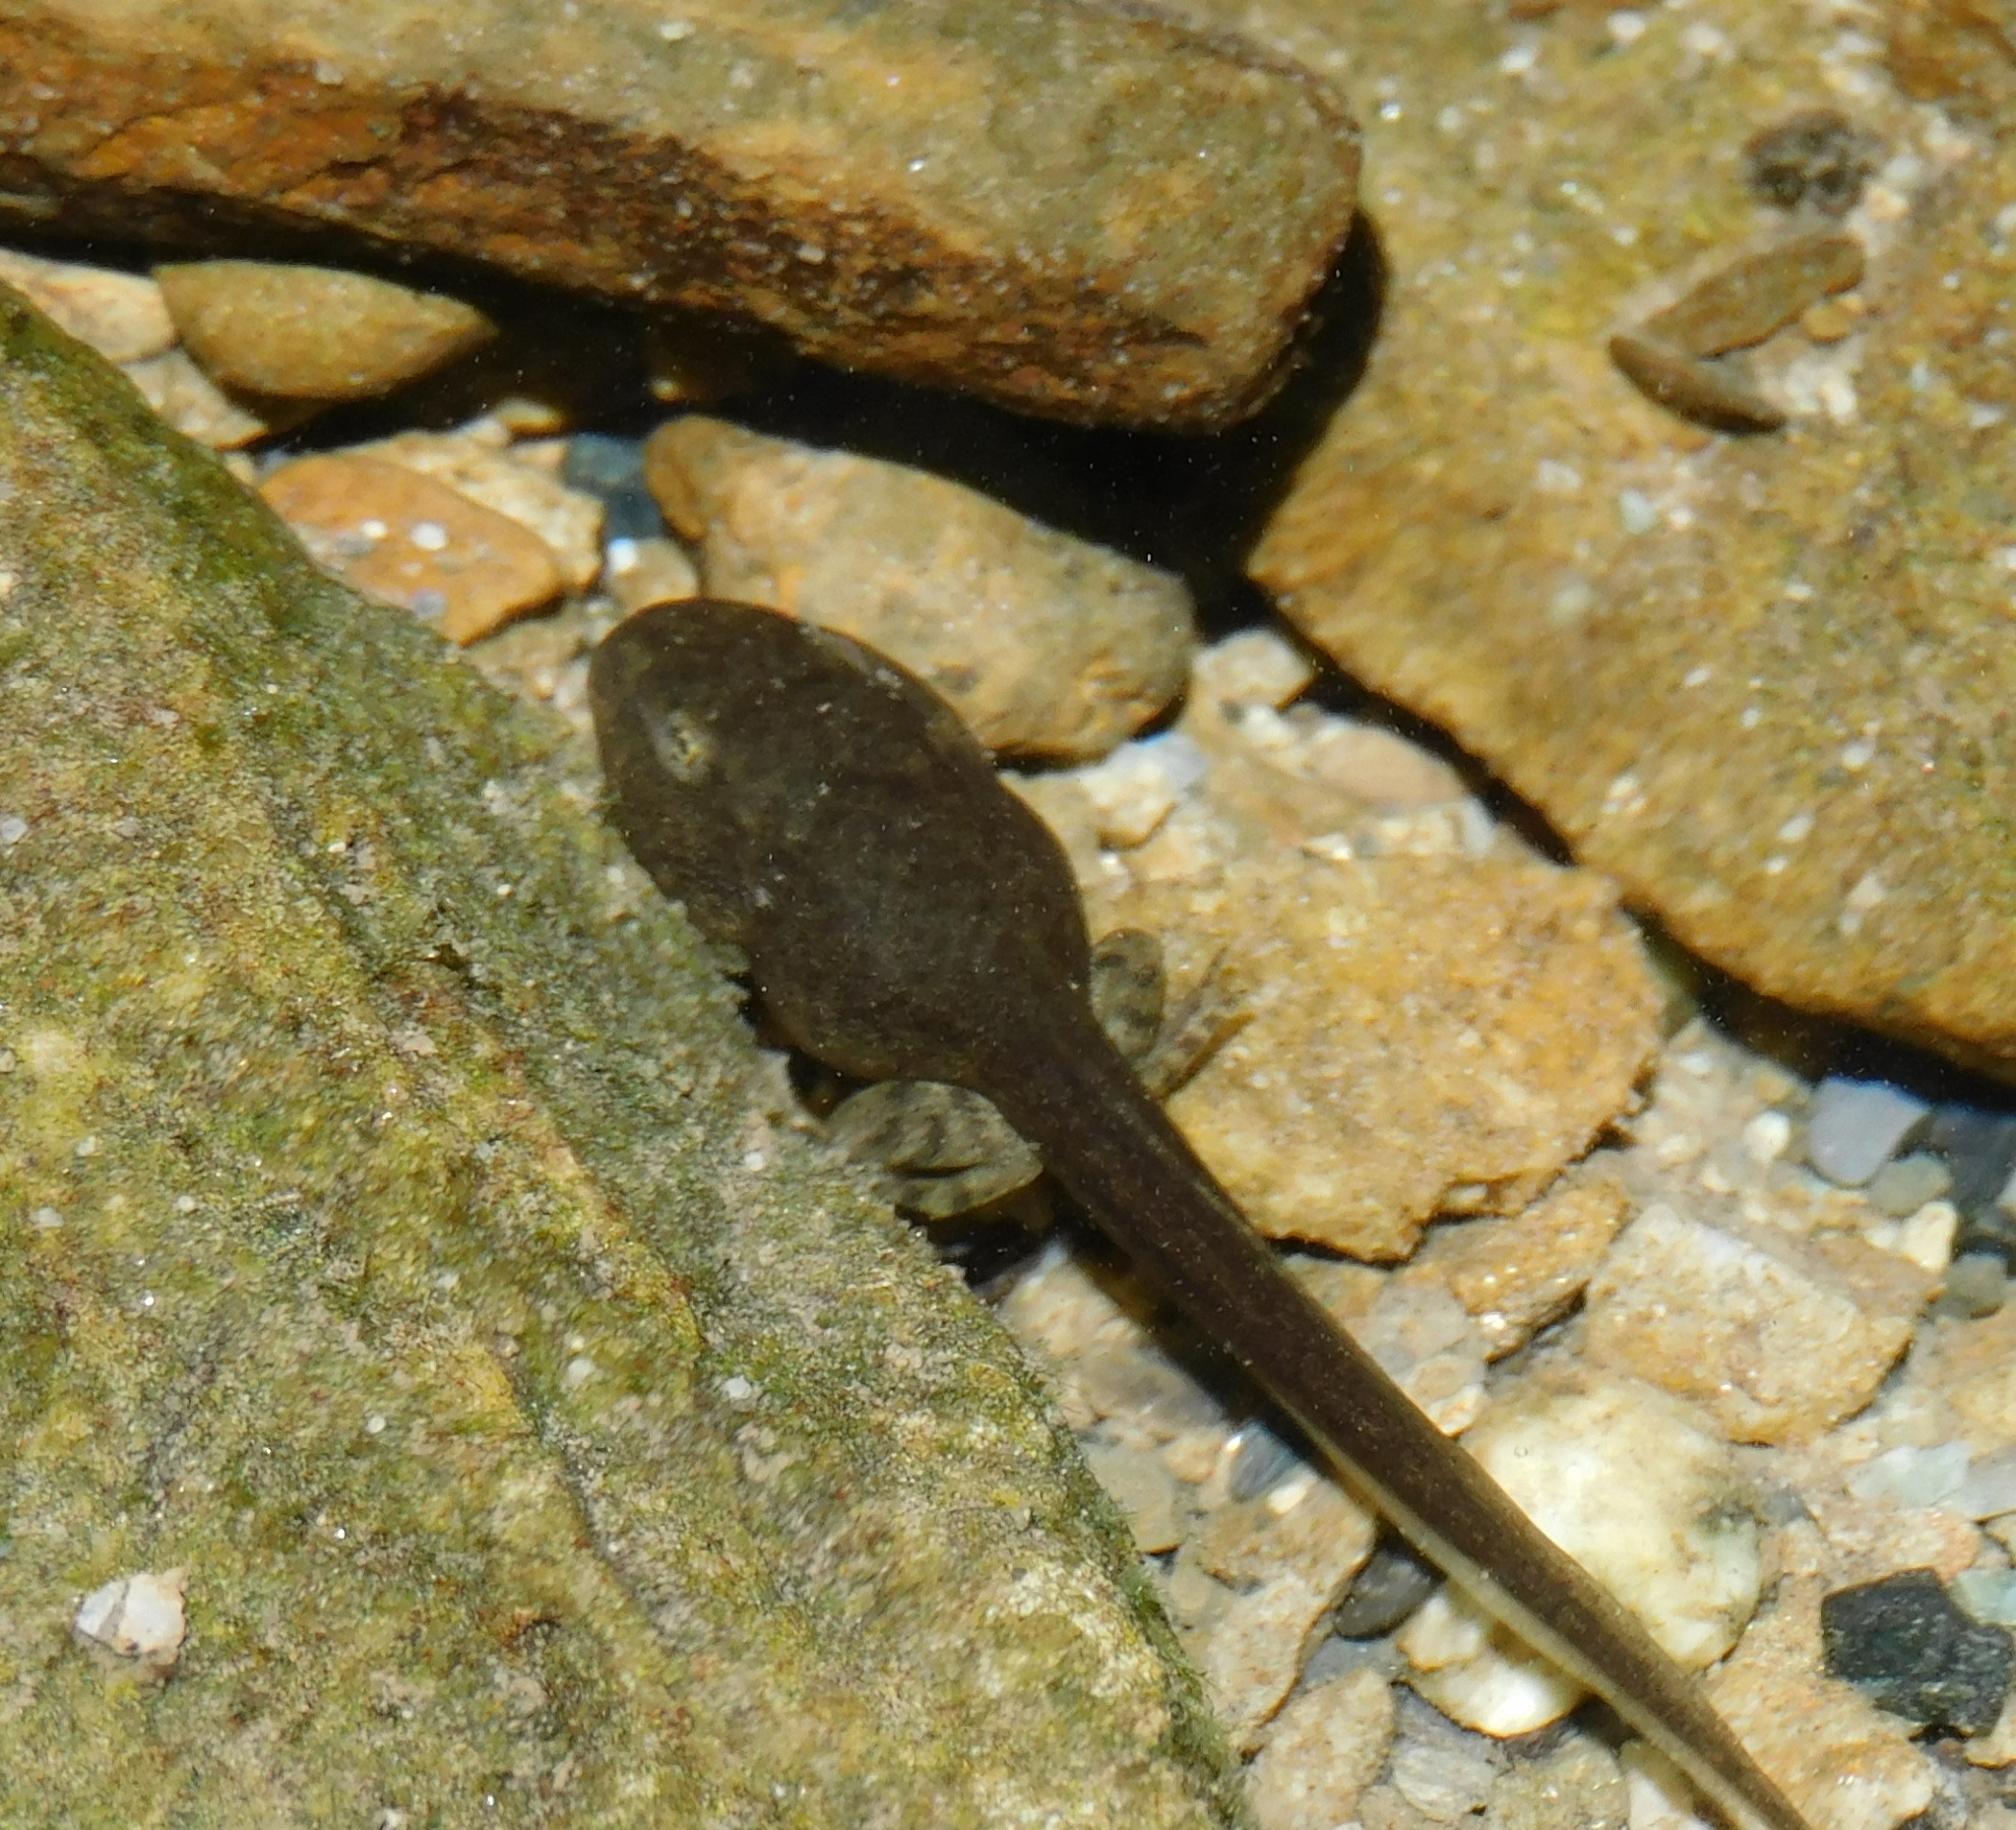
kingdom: Animalia
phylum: Chordata
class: Amphibia
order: Anura
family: Ranidae
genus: Rana
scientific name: Rana italica
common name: Italian stream frog
